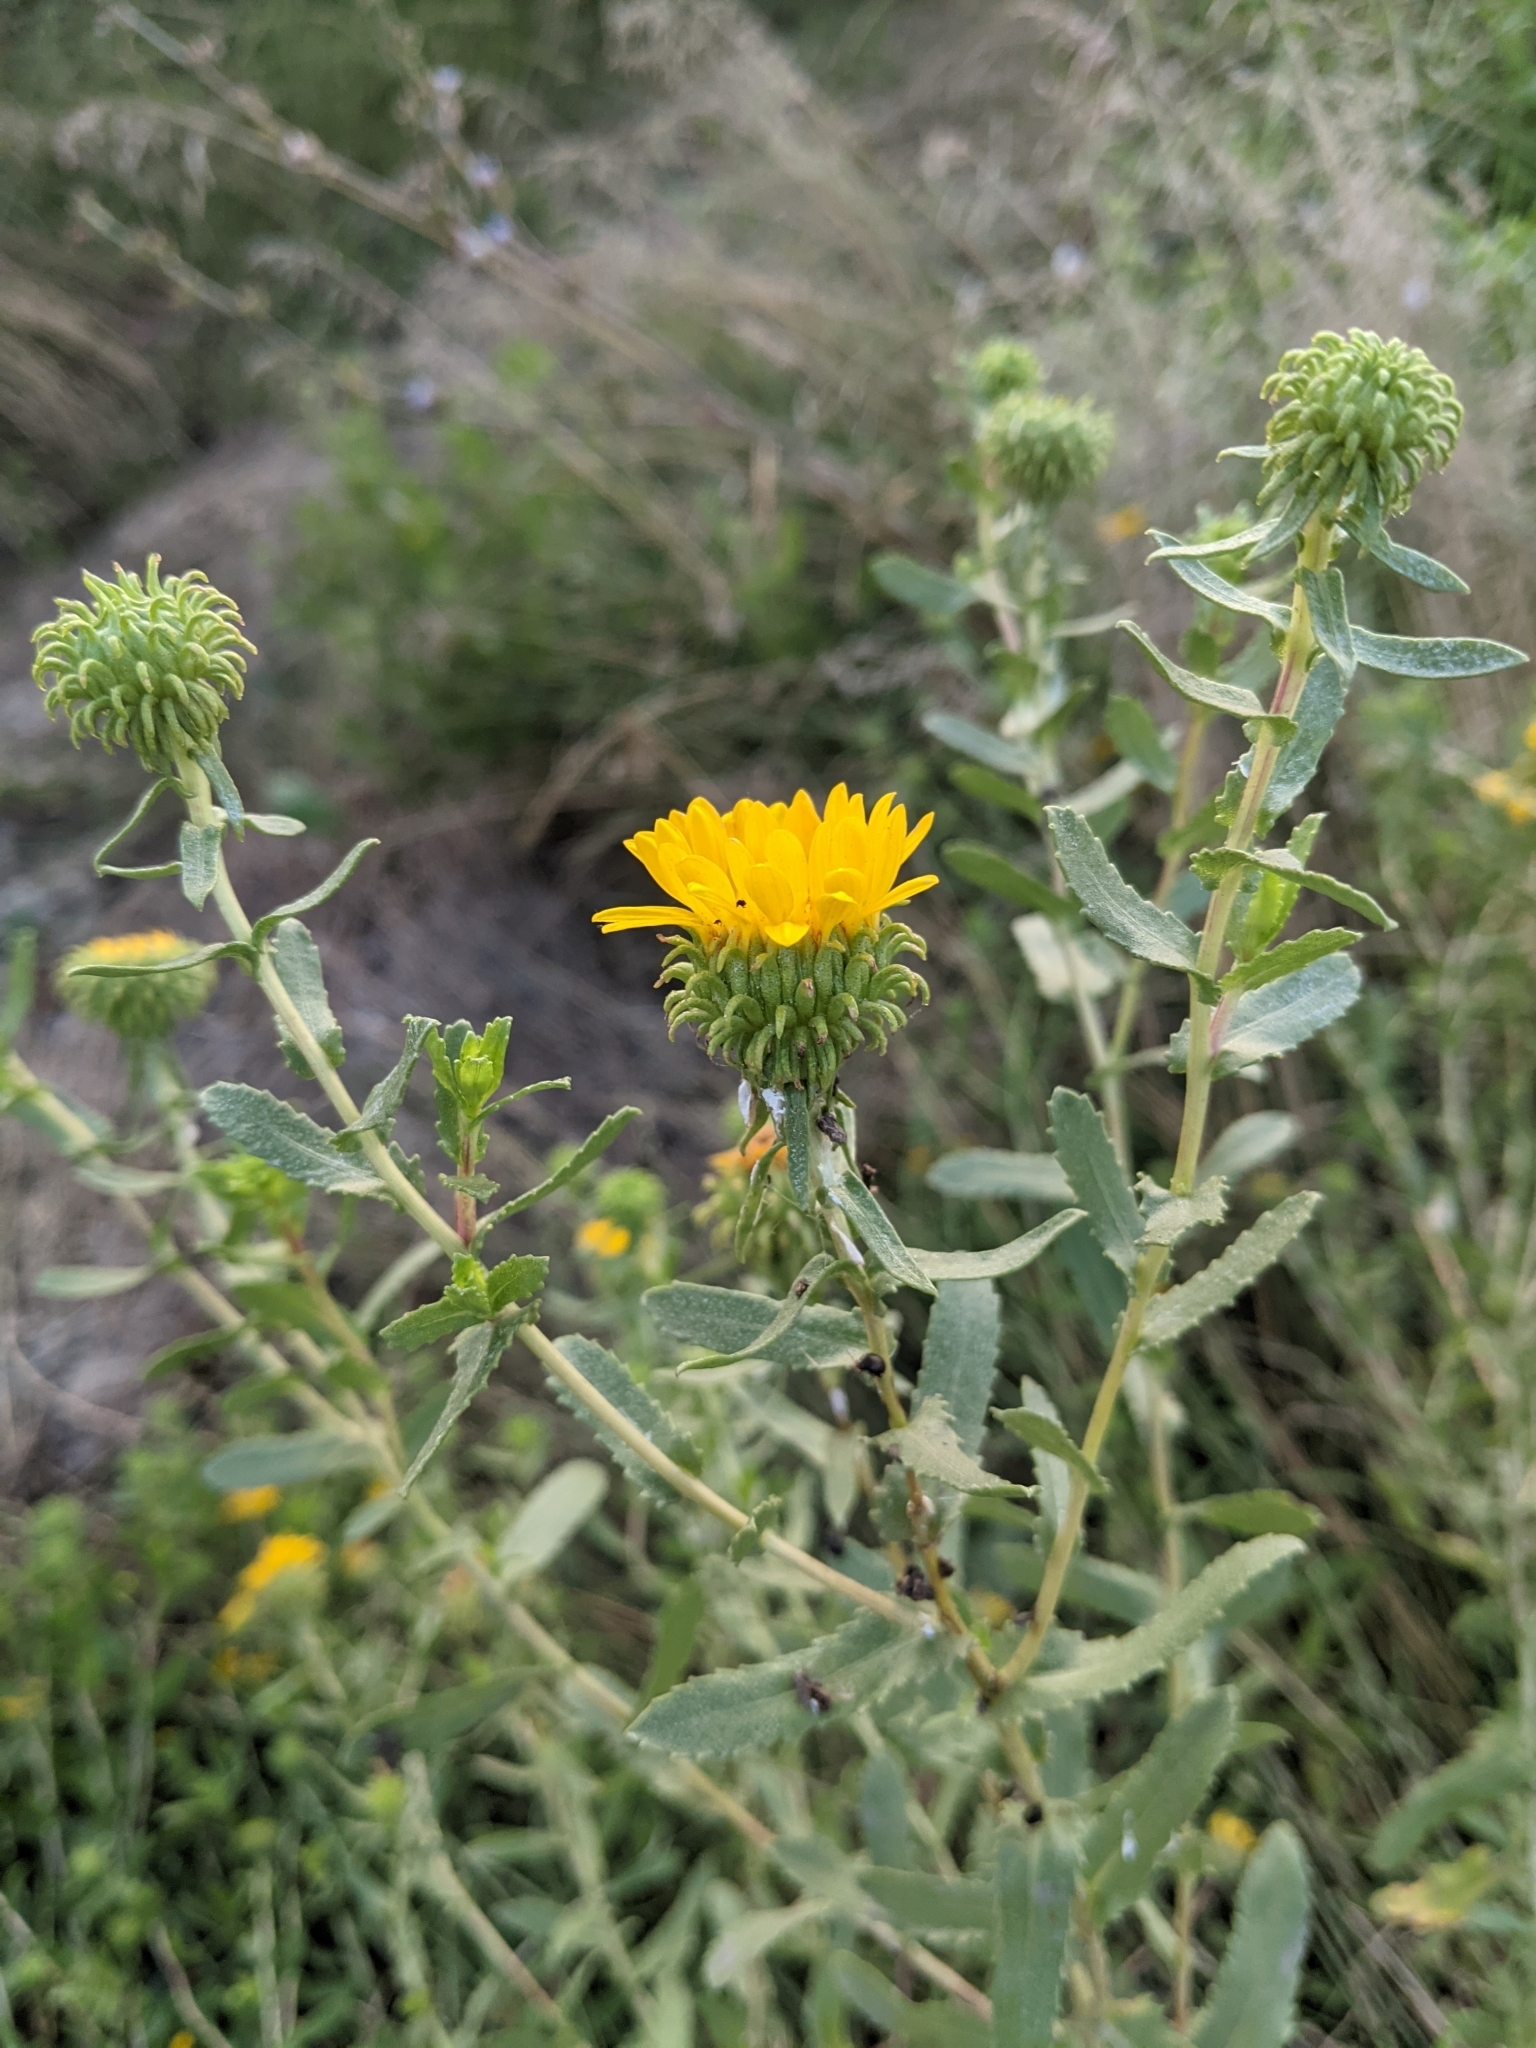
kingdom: Plantae
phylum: Tracheophyta
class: Magnoliopsida
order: Asterales
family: Asteraceae
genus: Grindelia
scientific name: Grindelia squarrosa
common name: Curly-cup gumweed
